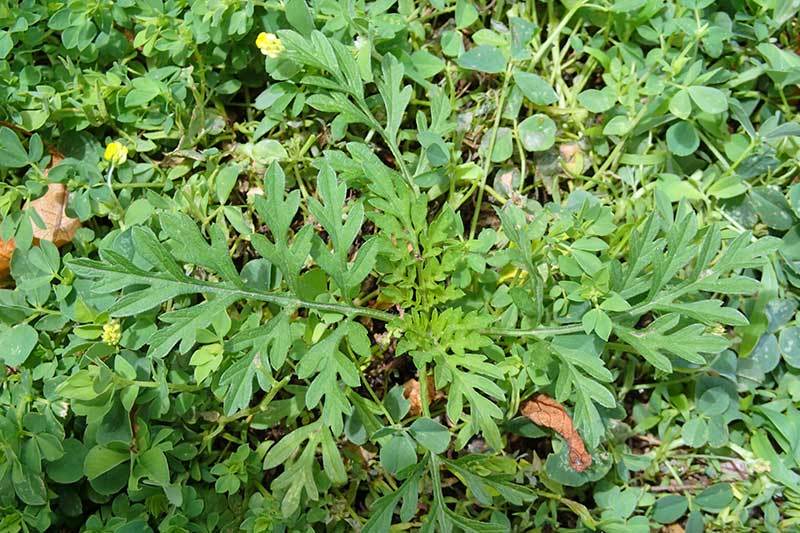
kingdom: Plantae
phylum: Tracheophyta
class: Magnoliopsida
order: Asterales
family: Asteraceae
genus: Ambrosia
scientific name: Ambrosia artemisiifolia
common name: Annual ragweed
